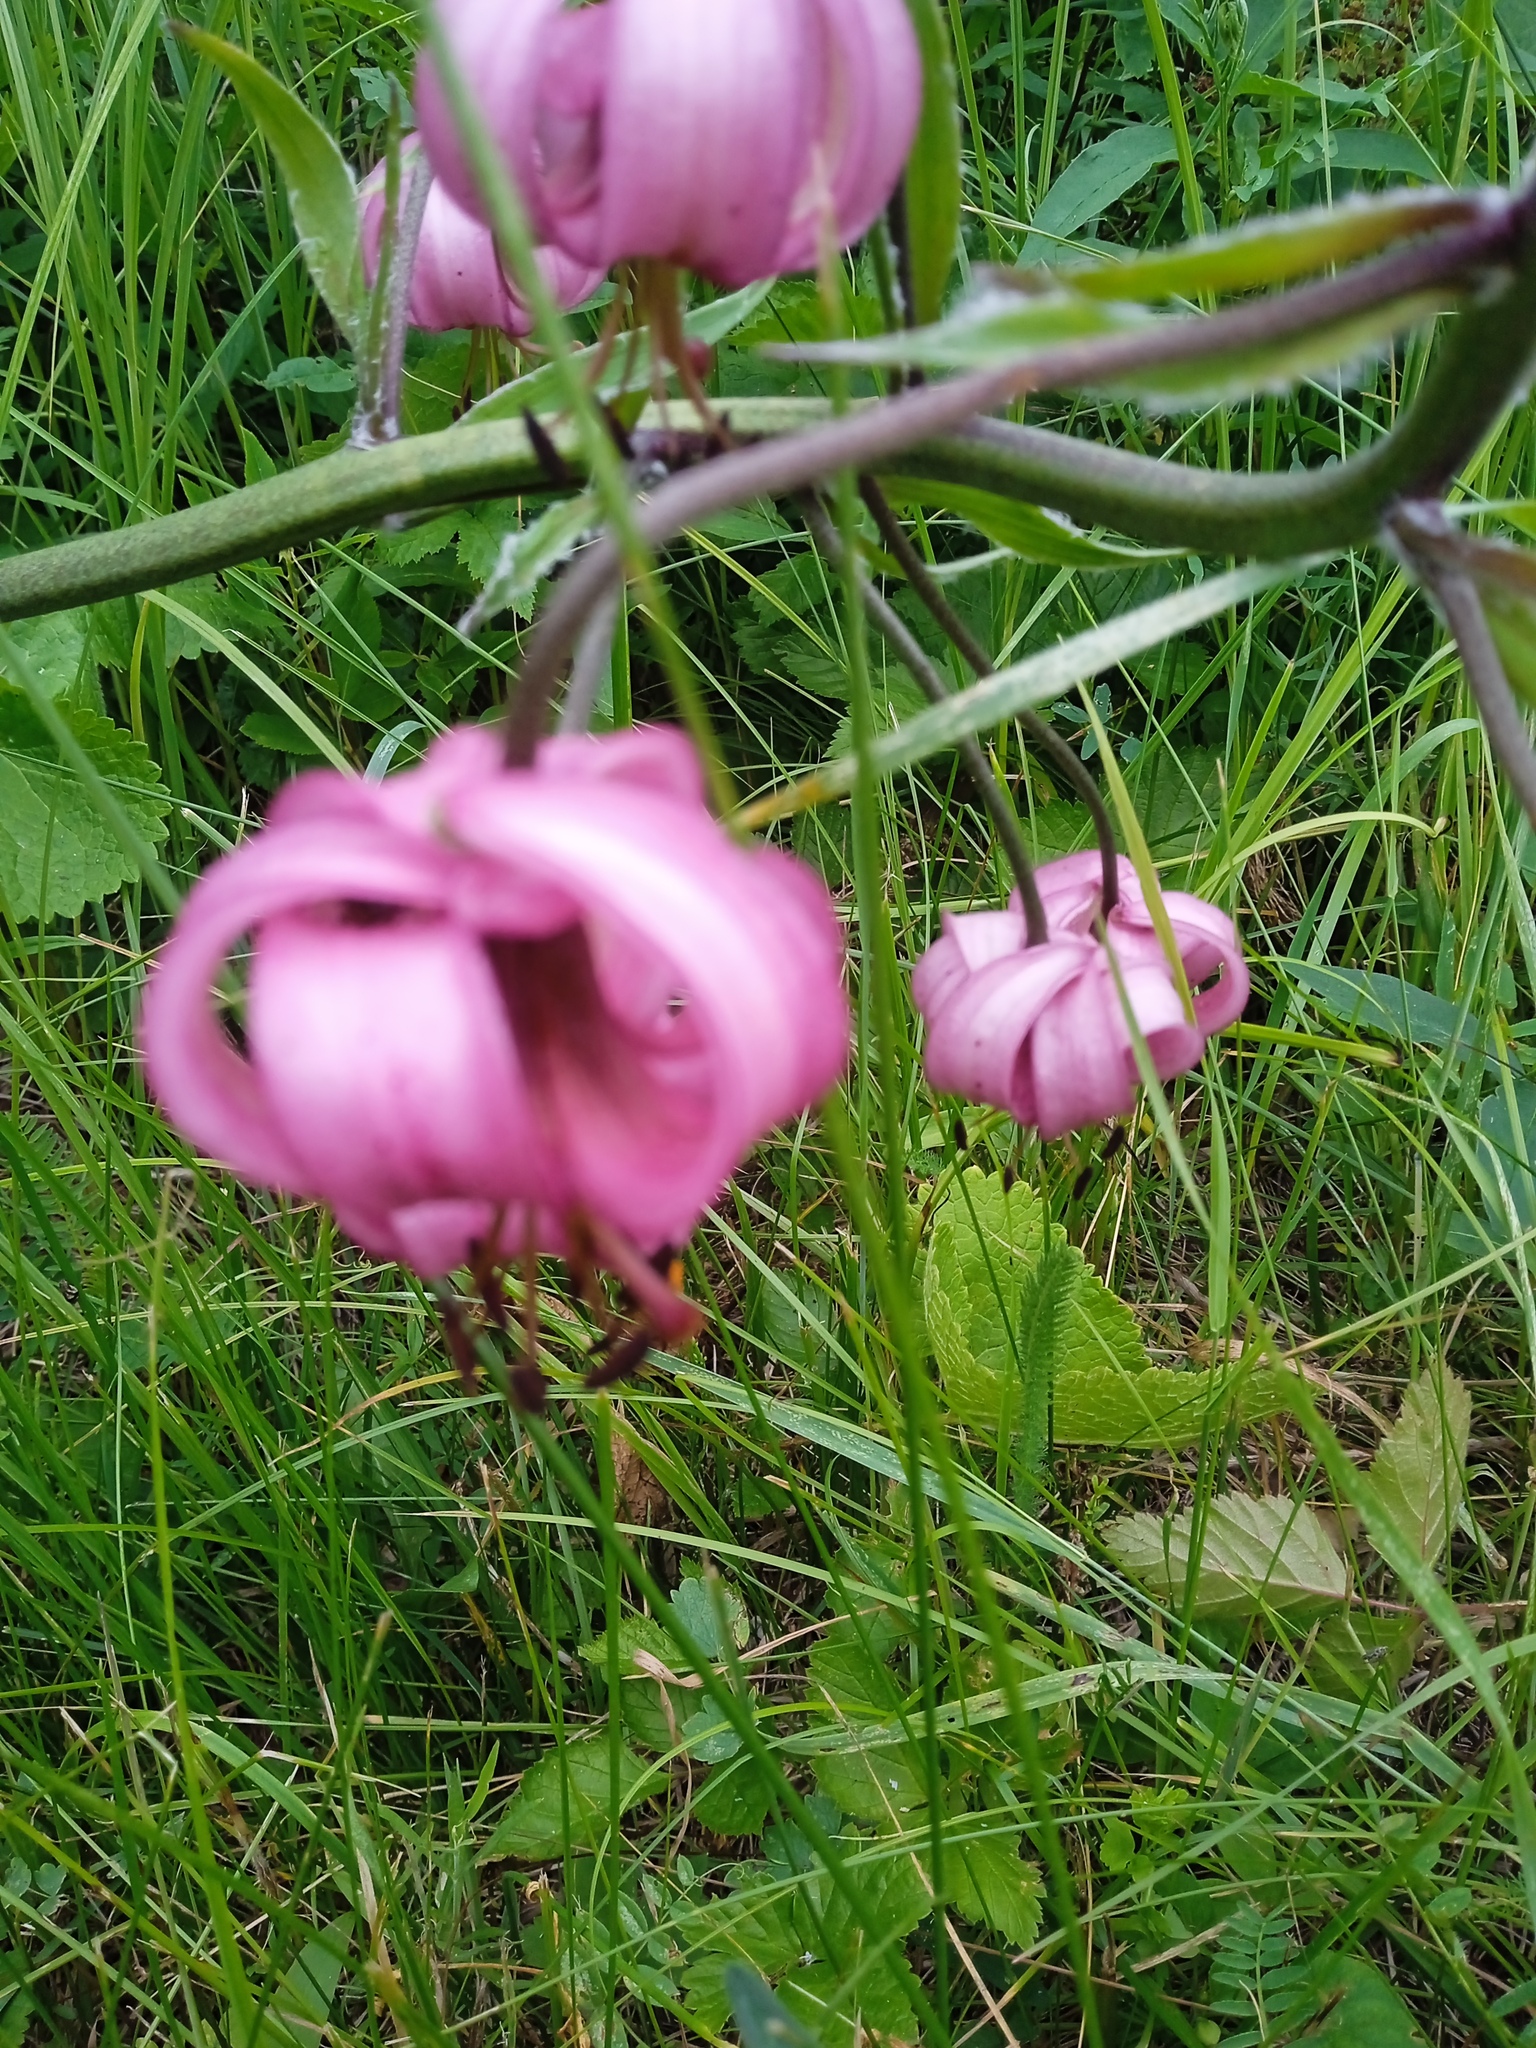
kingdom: Plantae
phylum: Tracheophyta
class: Liliopsida
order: Liliales
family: Liliaceae
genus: Lilium
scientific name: Lilium martagon
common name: Martagon lily
